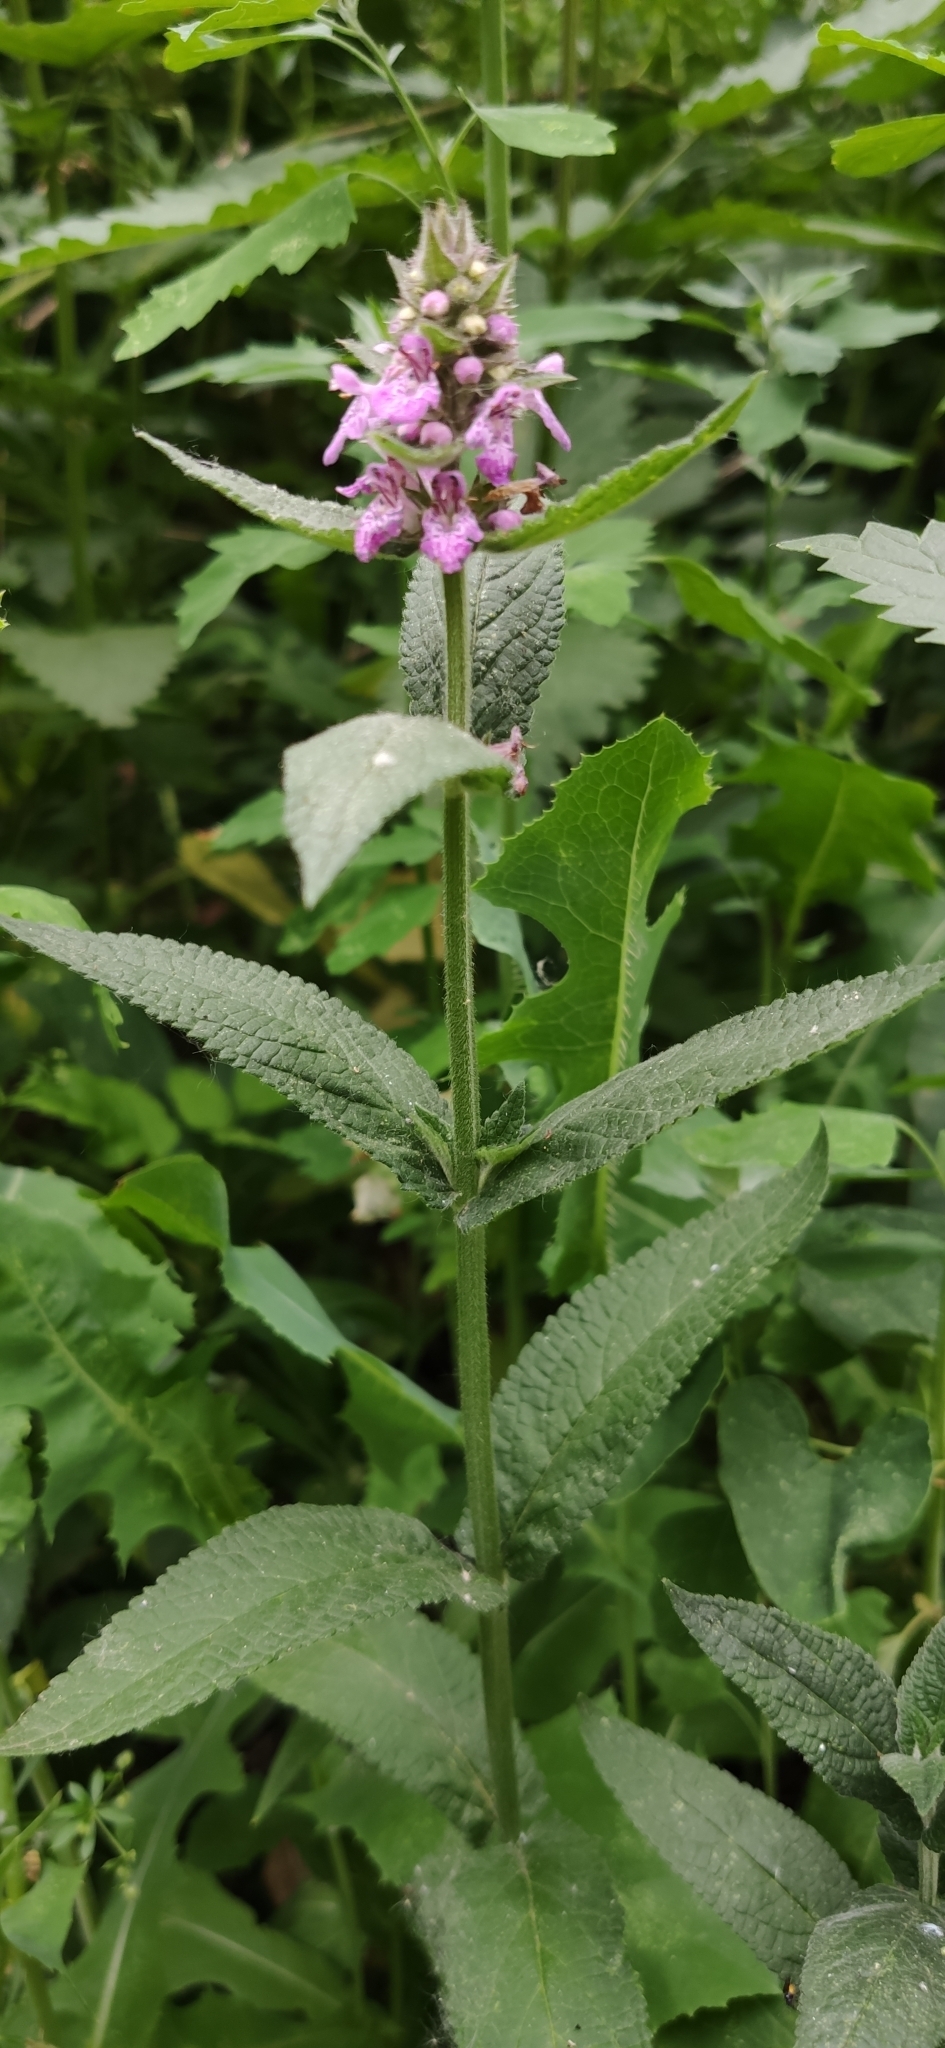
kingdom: Plantae
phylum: Tracheophyta
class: Magnoliopsida
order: Lamiales
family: Lamiaceae
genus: Stachys
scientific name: Stachys palustris
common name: Marsh woundwort
